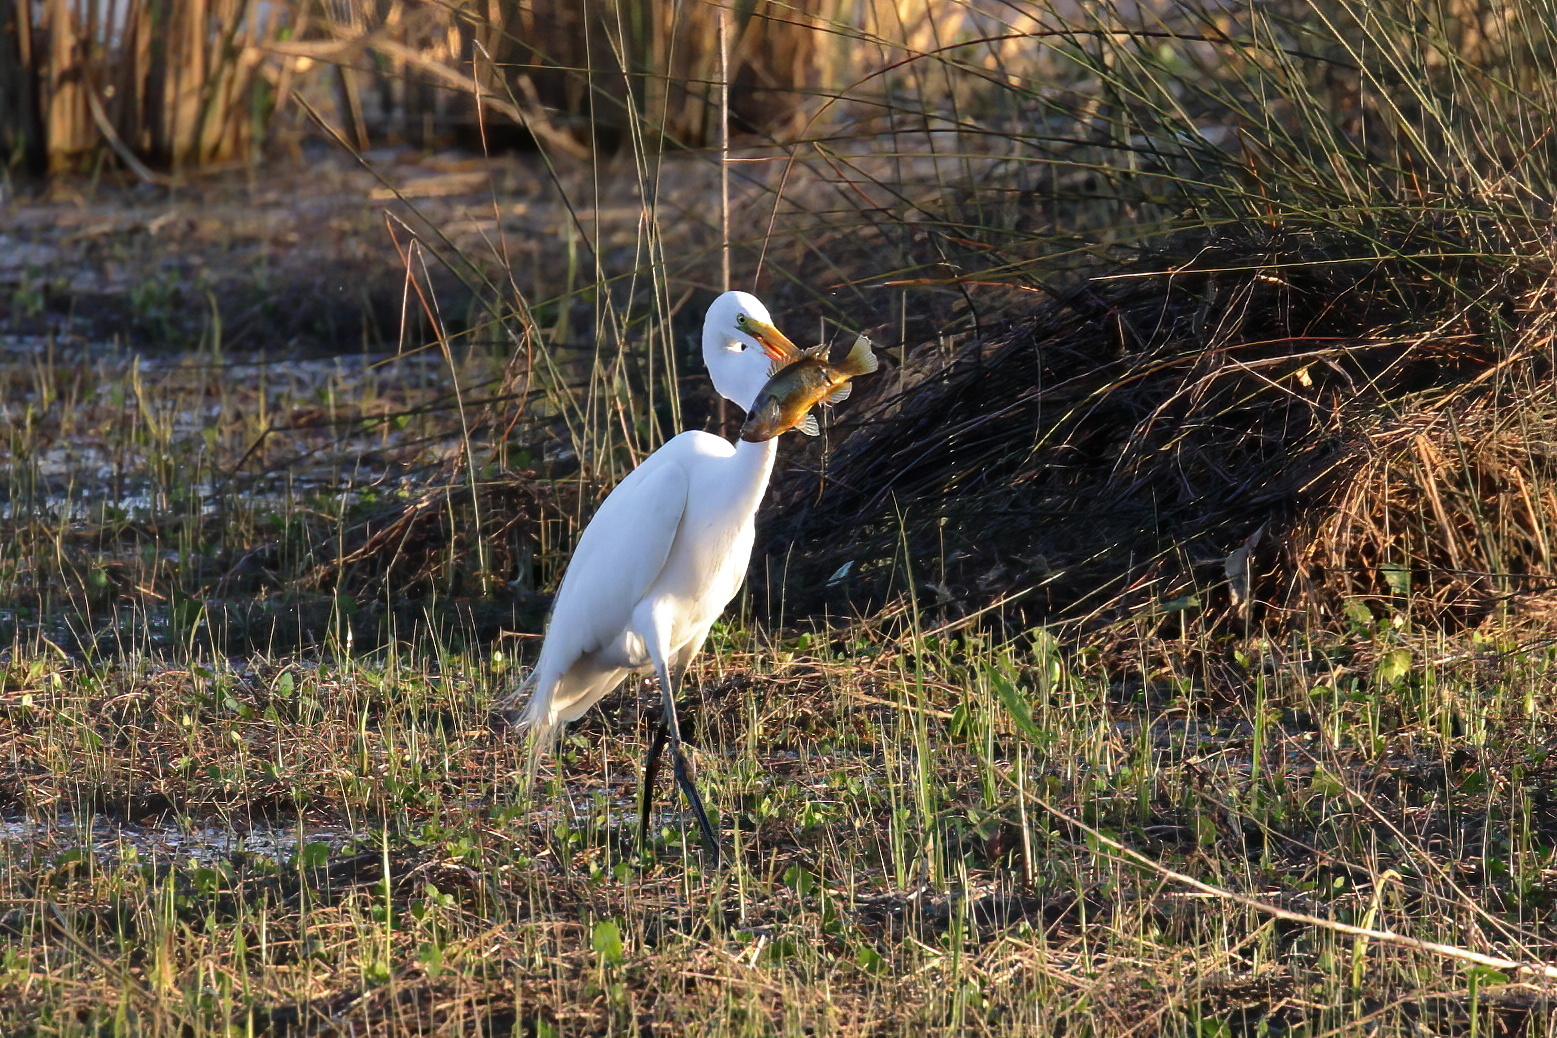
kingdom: Animalia
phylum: Chordata
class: Aves
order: Pelecaniformes
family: Ardeidae
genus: Ardea
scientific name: Ardea alba
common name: Great egret
